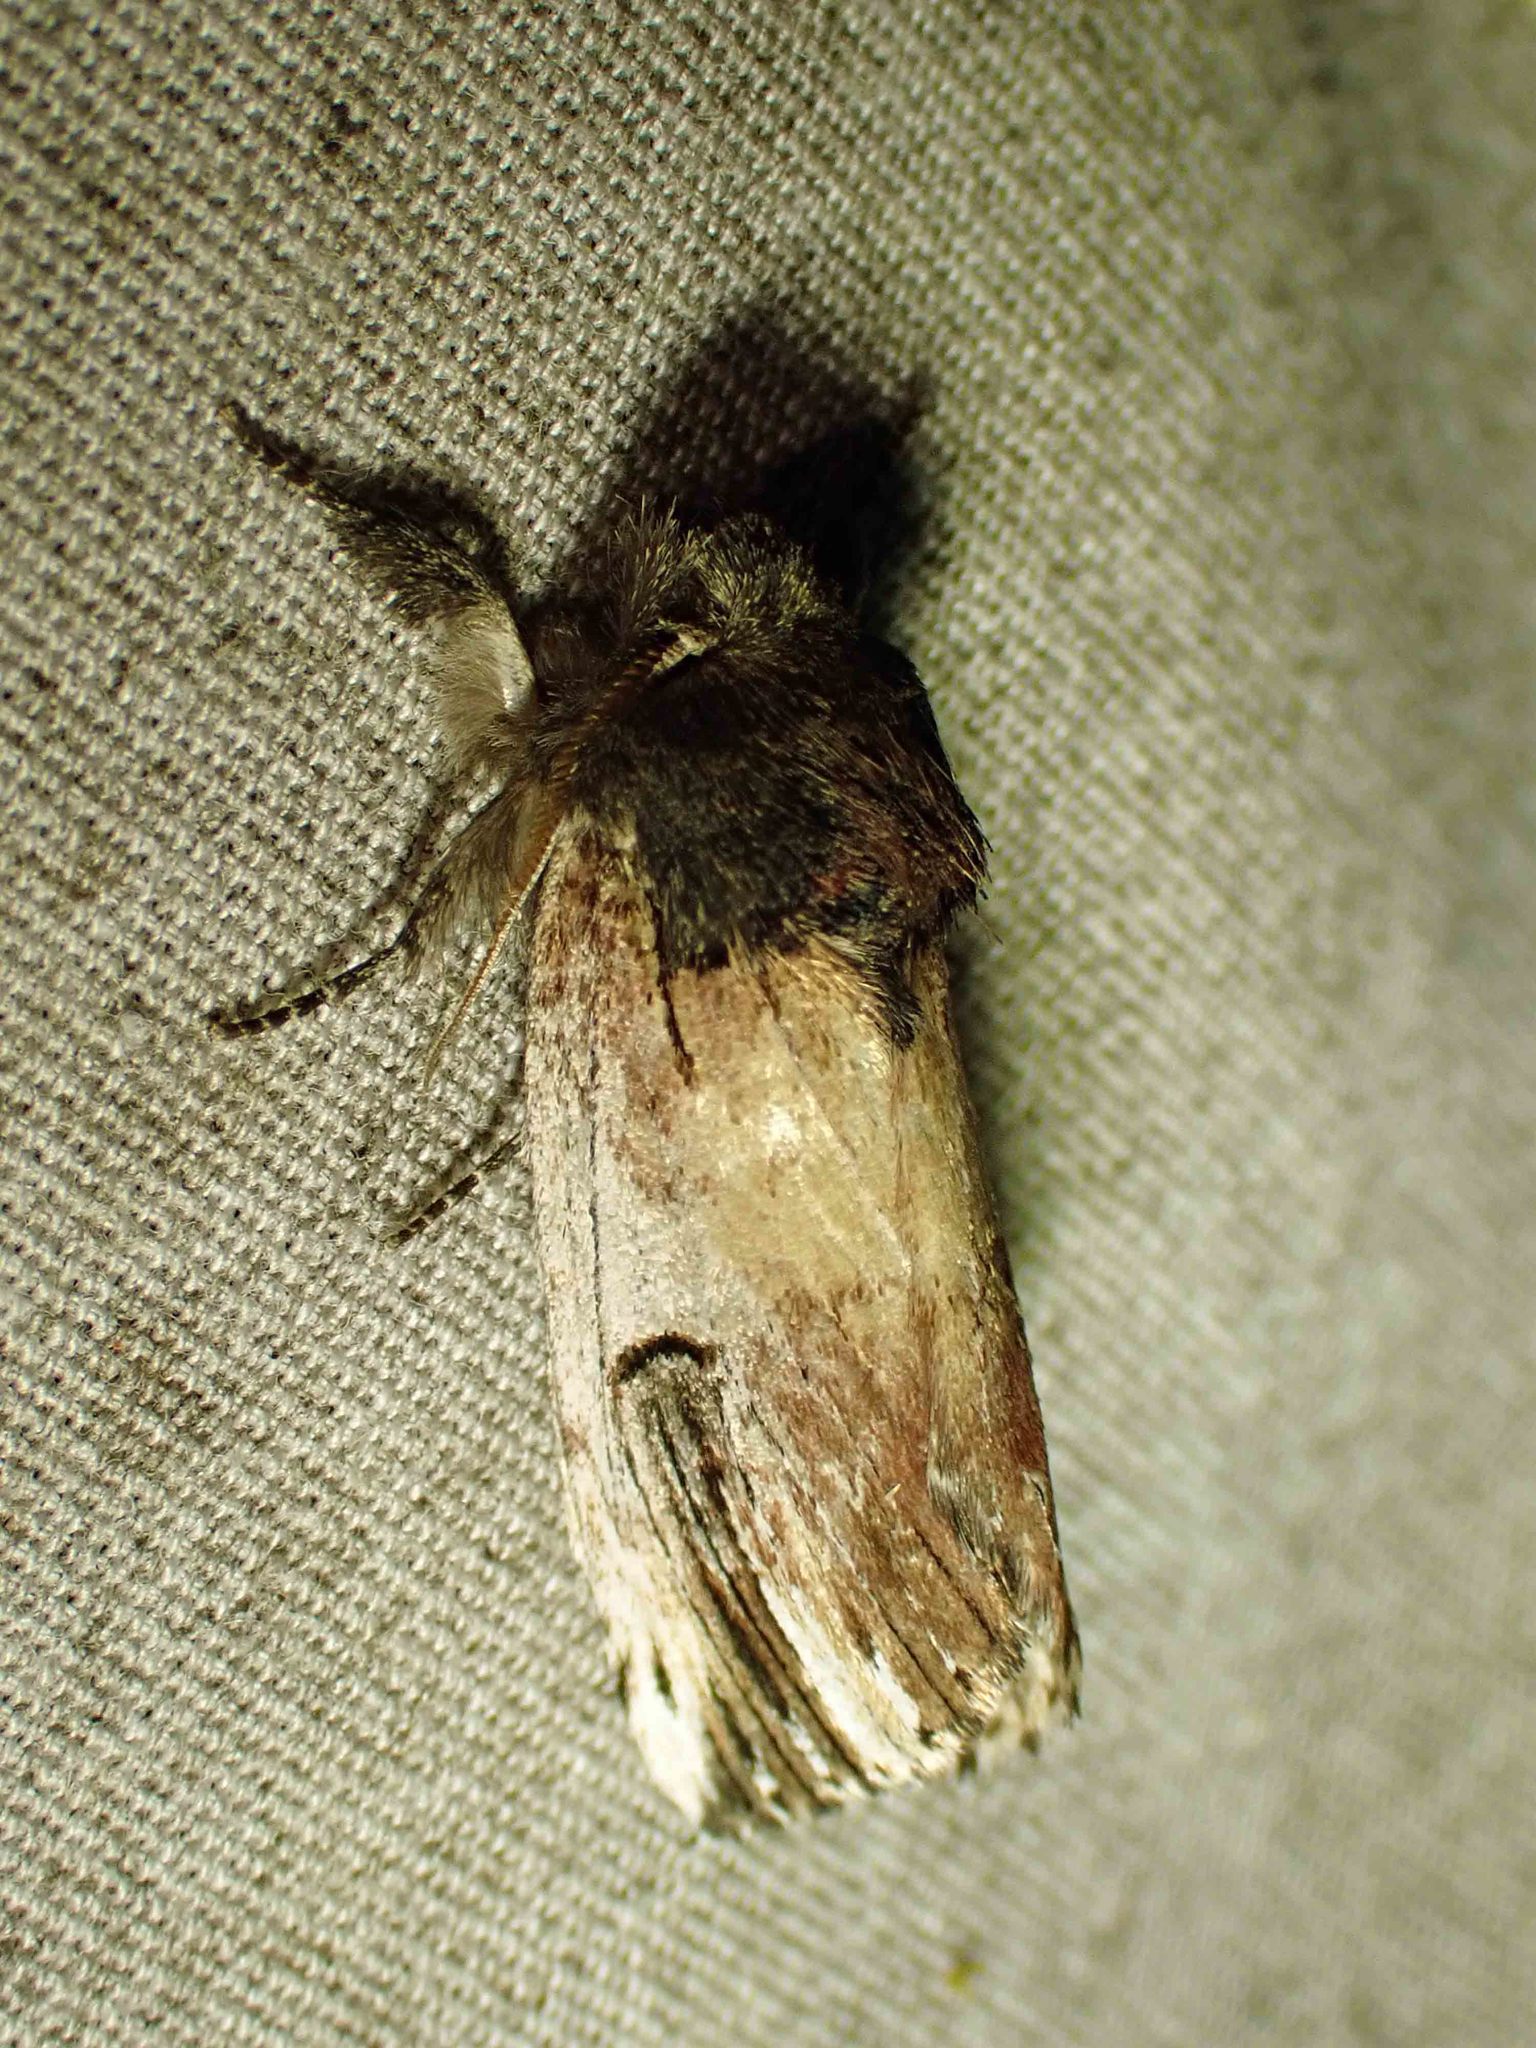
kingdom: Animalia
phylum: Arthropoda
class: Insecta
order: Lepidoptera
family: Notodontidae
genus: Schizura
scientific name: Schizura badia
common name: Chestnut schizura
